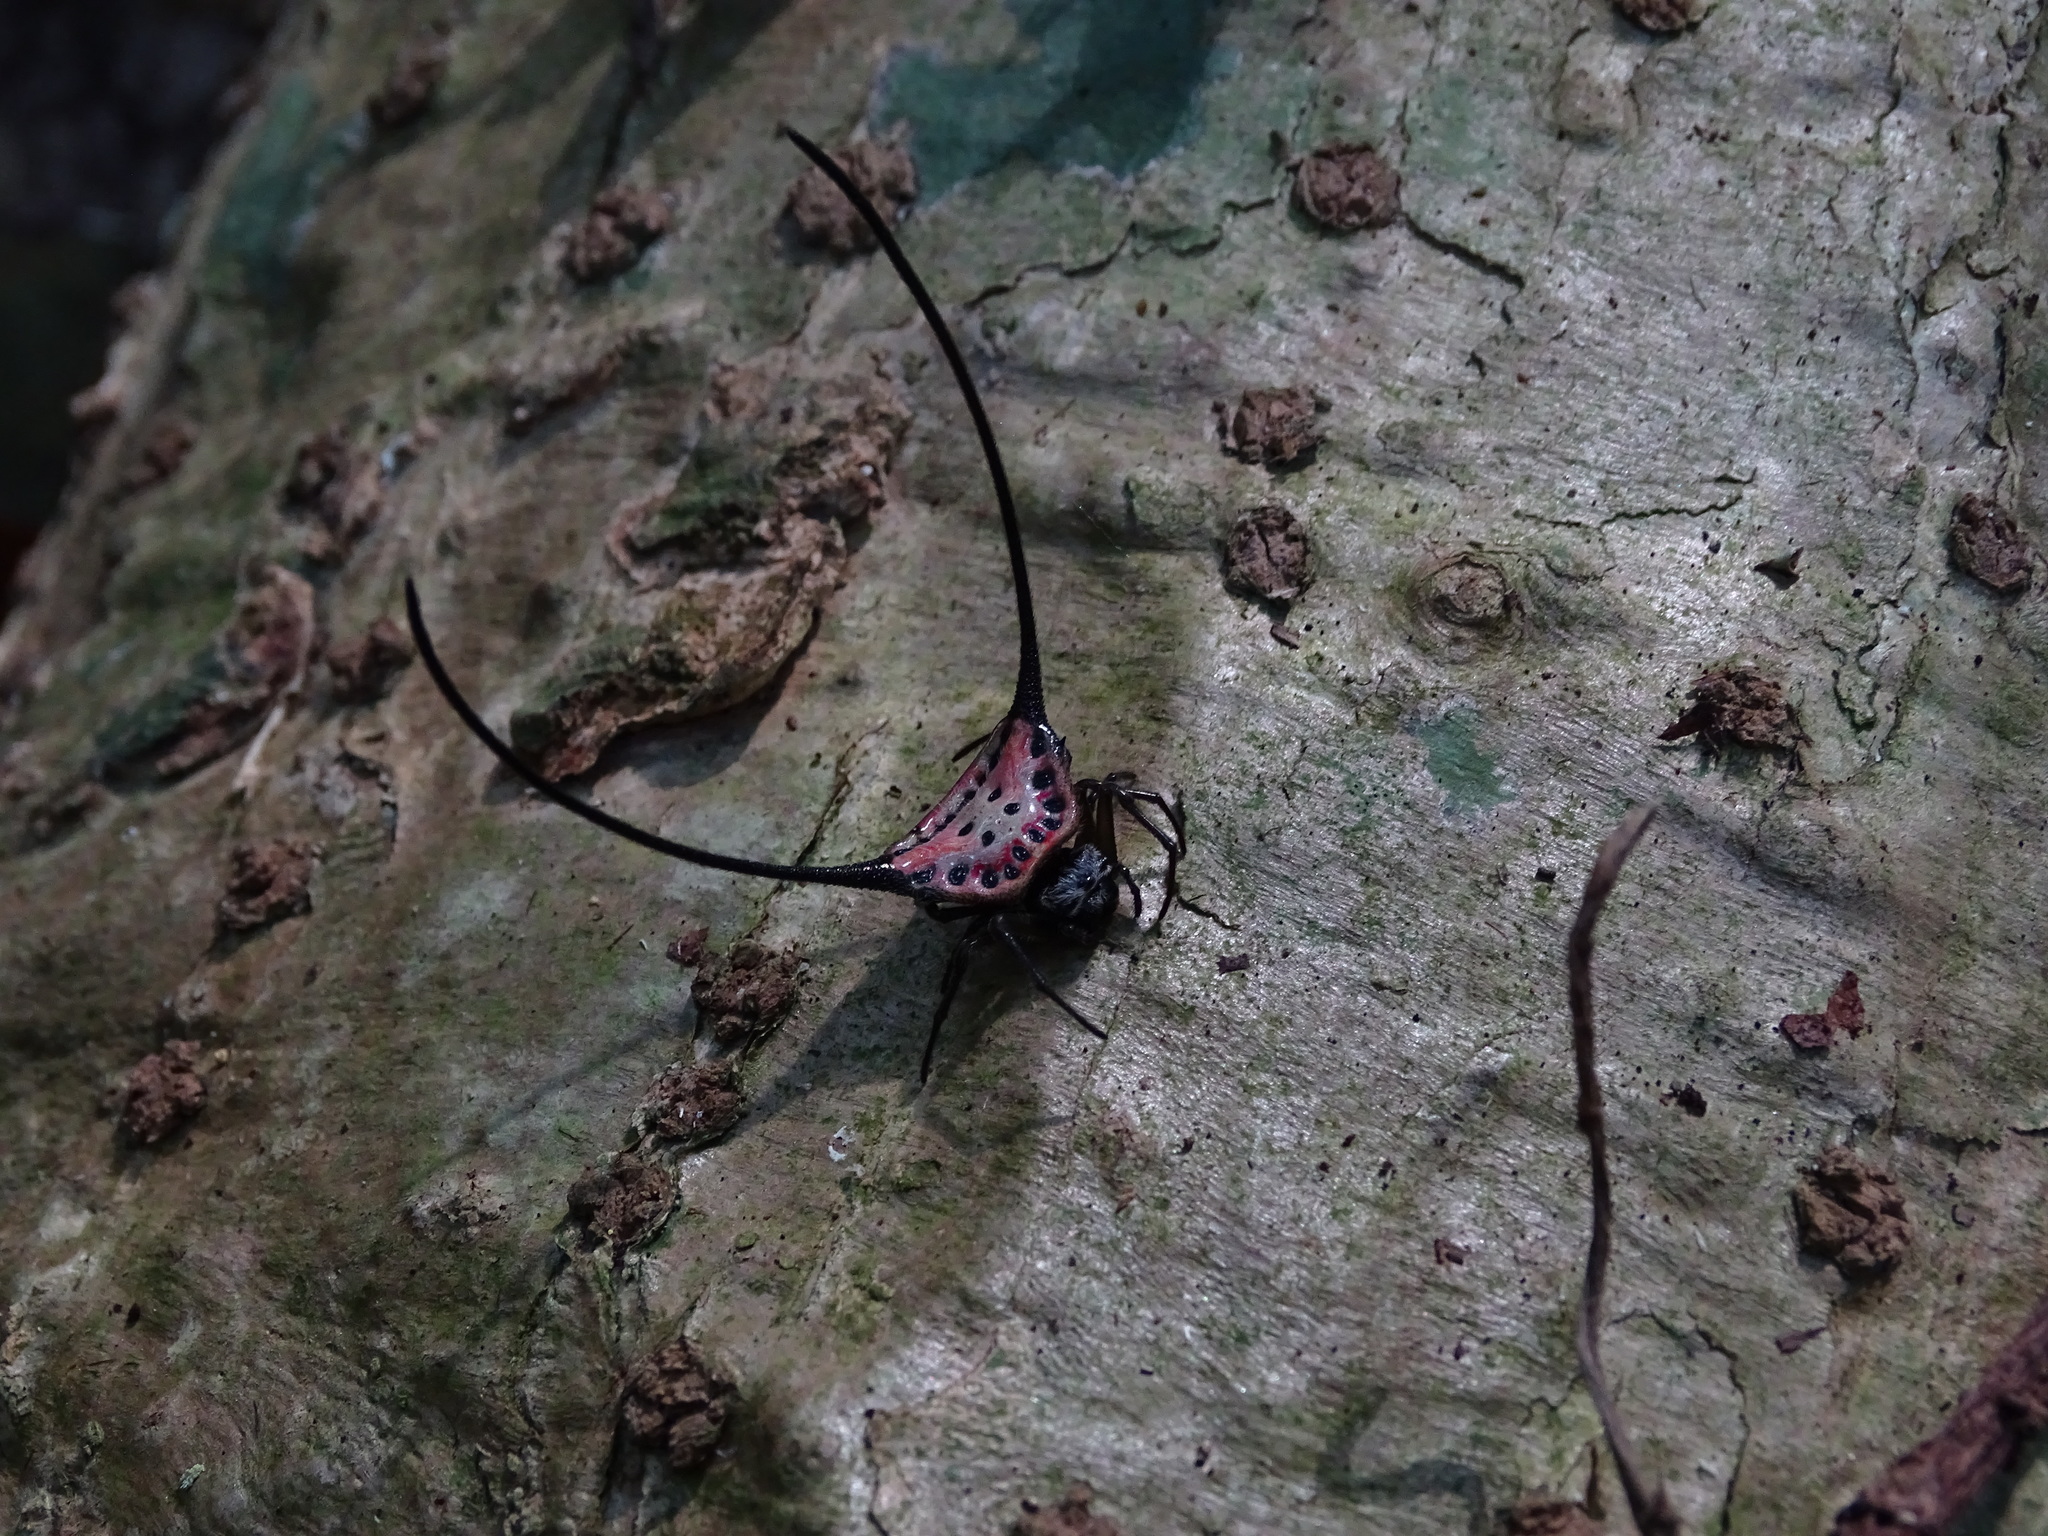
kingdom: Animalia
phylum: Arthropoda
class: Arachnida
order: Araneae
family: Araneidae
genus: Macracantha
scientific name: Macracantha arcuata
